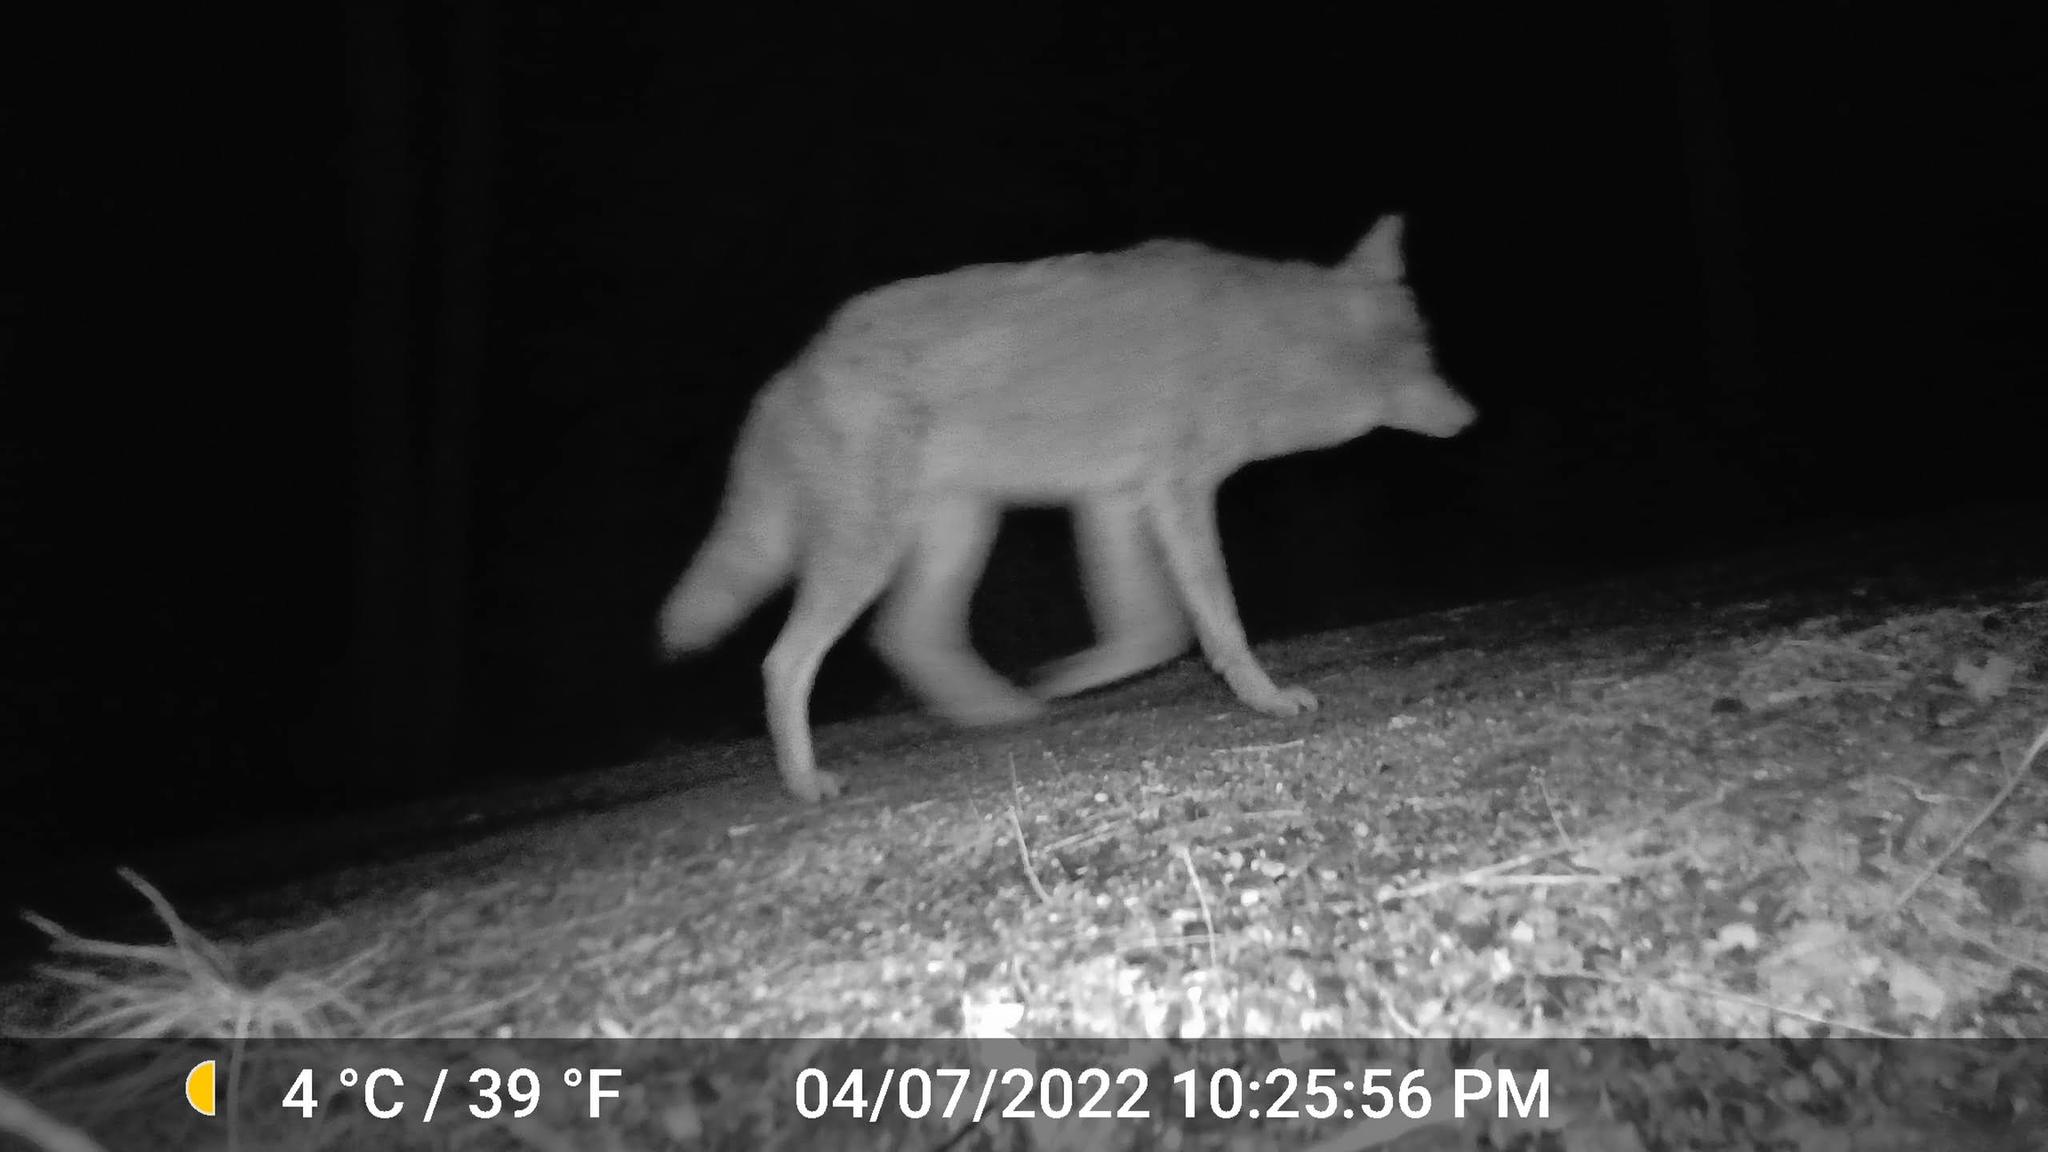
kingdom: Animalia
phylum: Chordata
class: Mammalia
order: Carnivora
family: Canidae
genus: Canis
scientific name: Canis latrans
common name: Coyote
